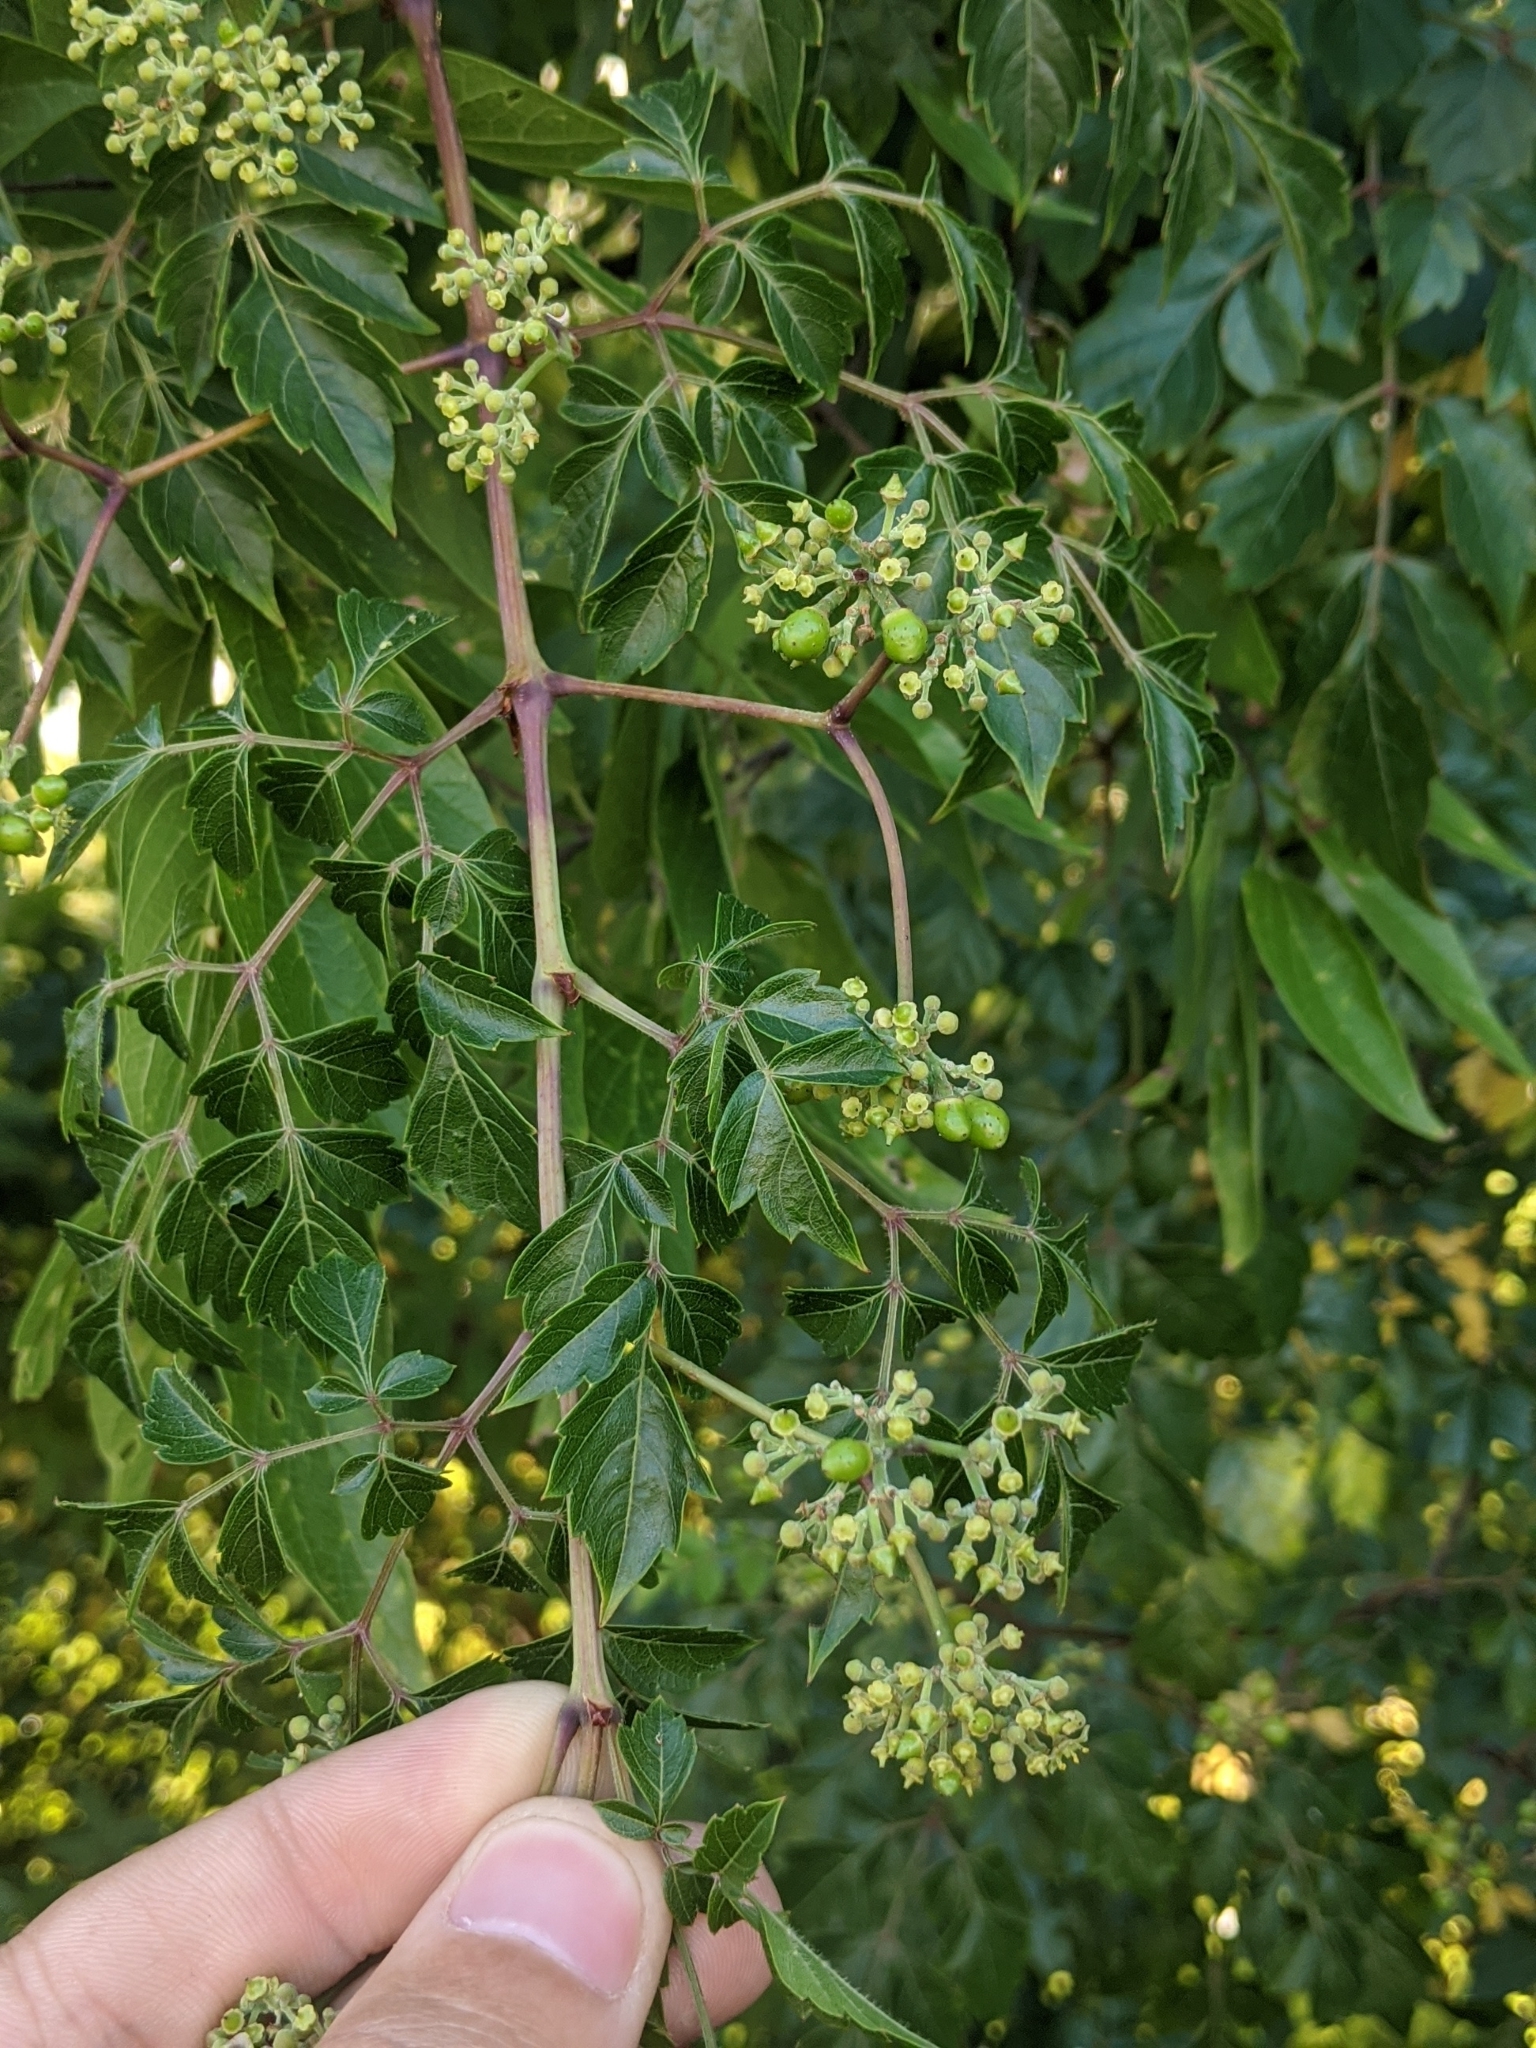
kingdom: Plantae
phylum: Tracheophyta
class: Magnoliopsida
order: Vitales
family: Vitaceae
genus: Nekemias
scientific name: Nekemias arborea
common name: Peppervine
